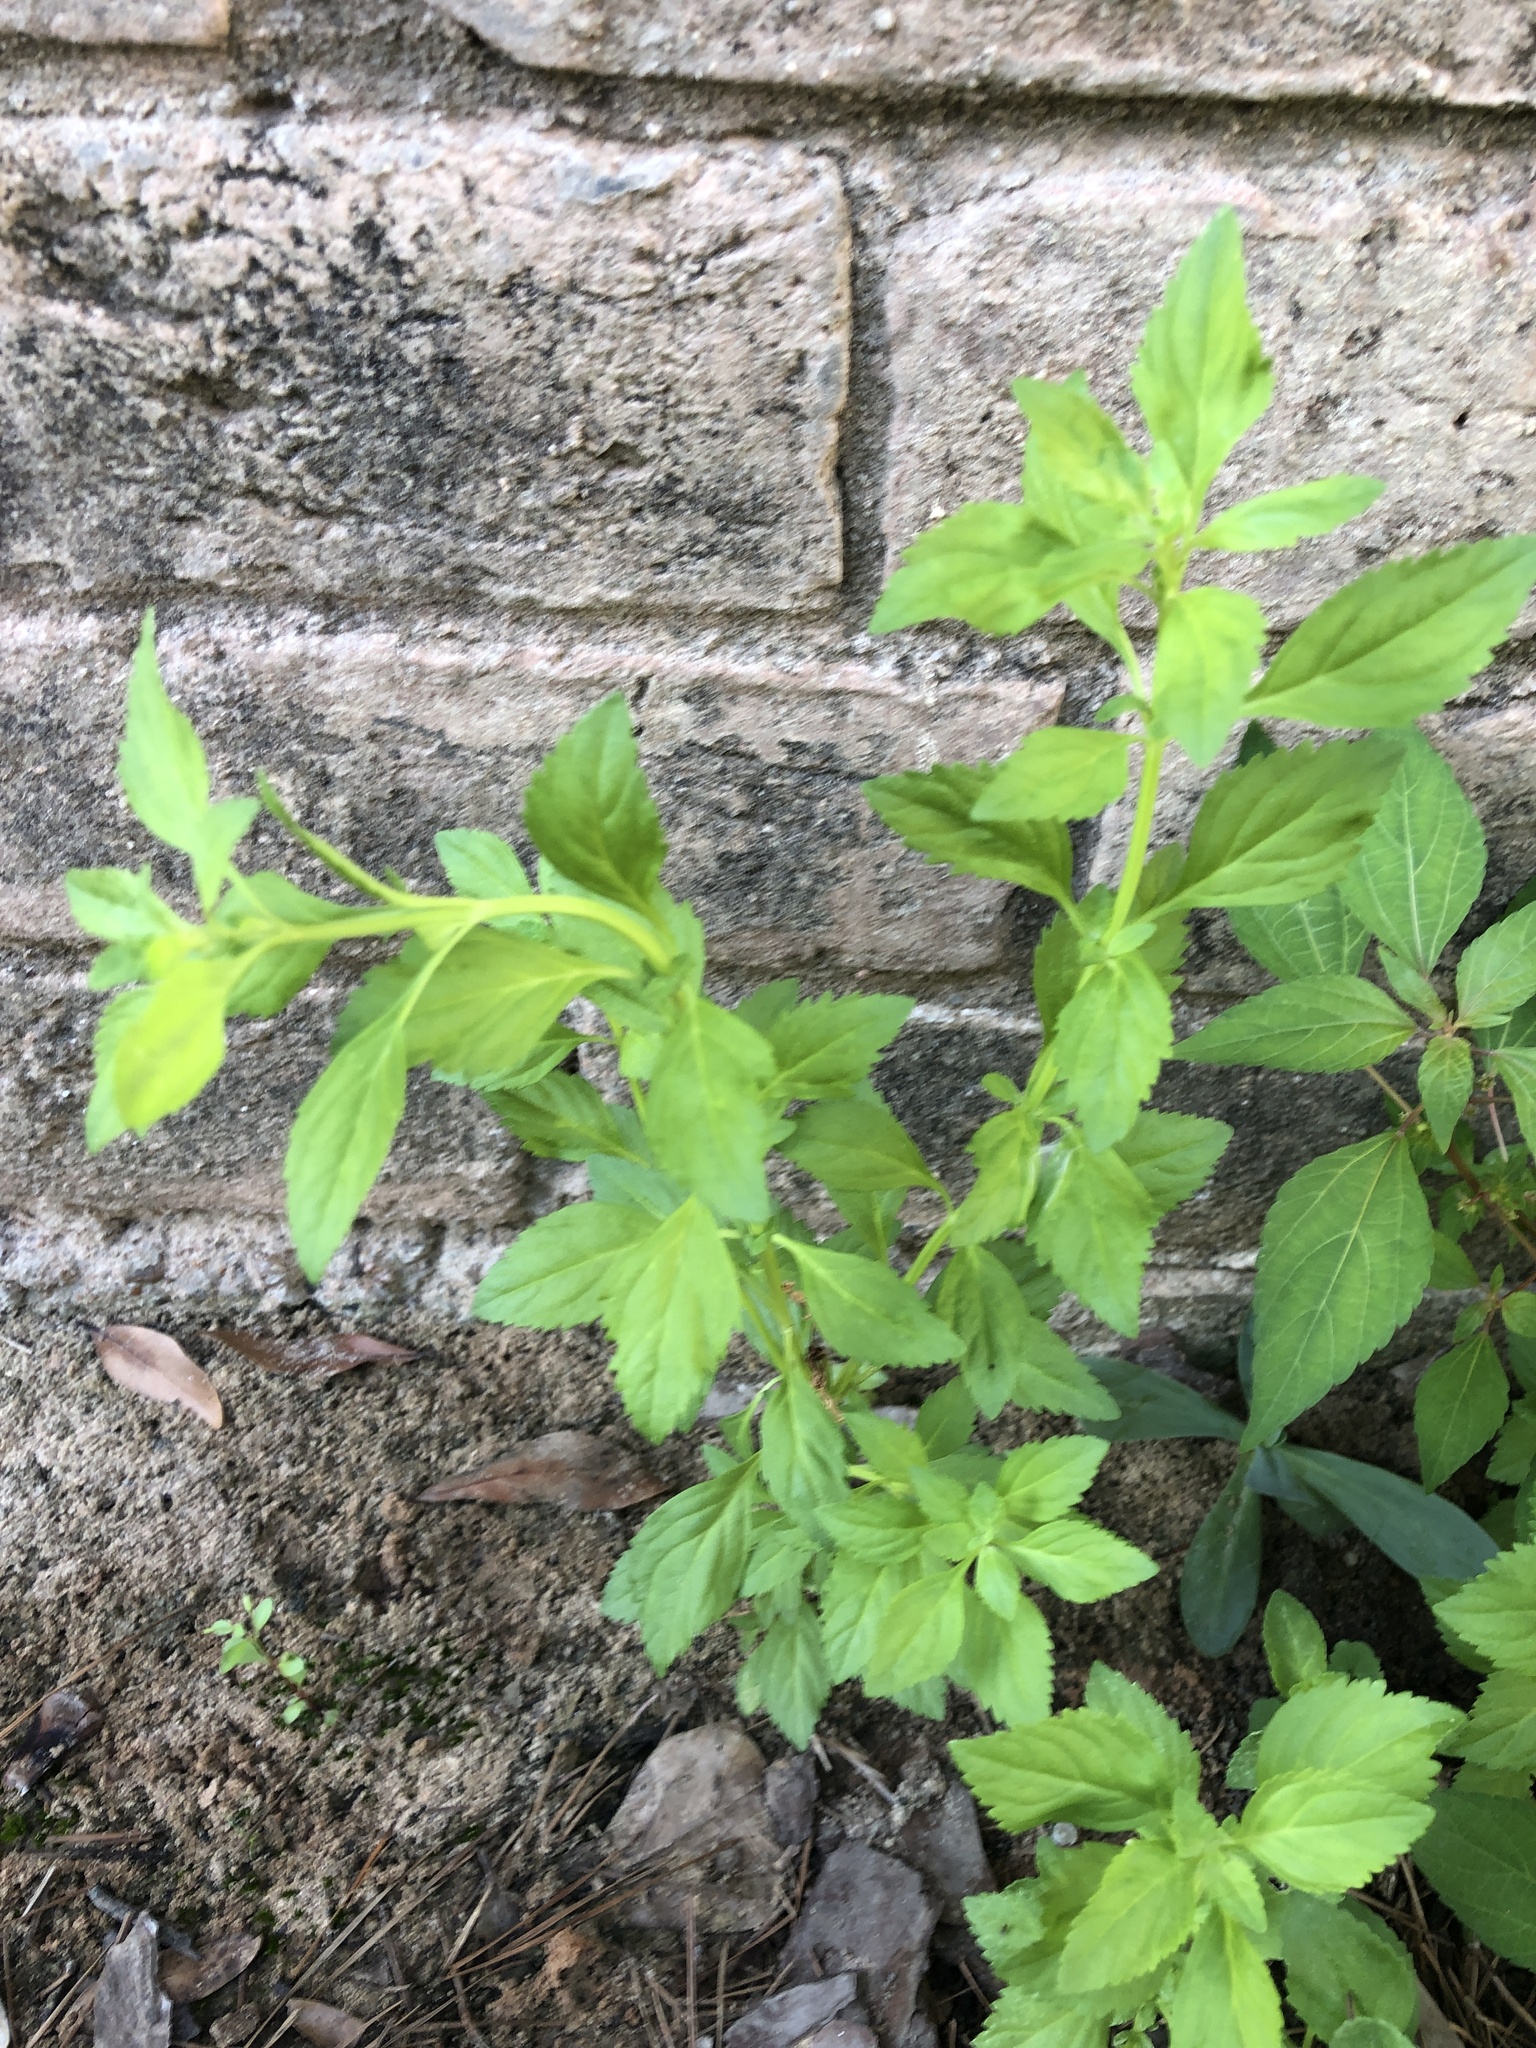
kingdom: Plantae
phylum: Tracheophyta
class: Magnoliopsida
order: Lamiales
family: Plantaginaceae
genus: Scoparia
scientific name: Scoparia dulcis
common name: Scoparia-weed
